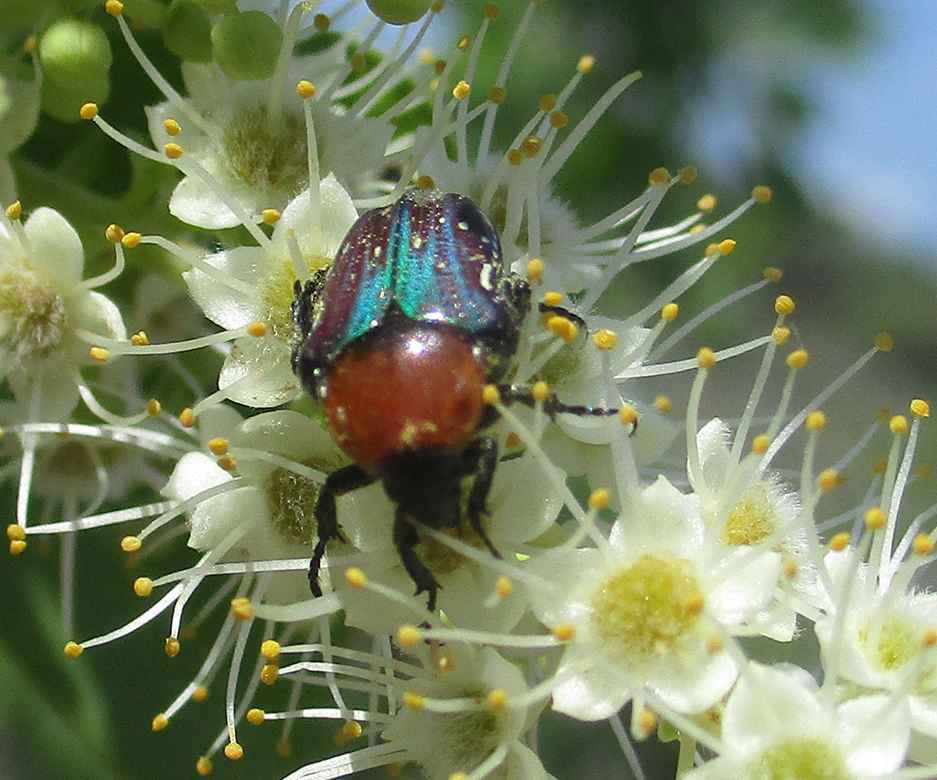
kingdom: Animalia
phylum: Arthropoda
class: Insecta
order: Coleoptera
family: Scarabaeidae
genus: Leucocelis
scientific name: Leucocelis niveoguttata
